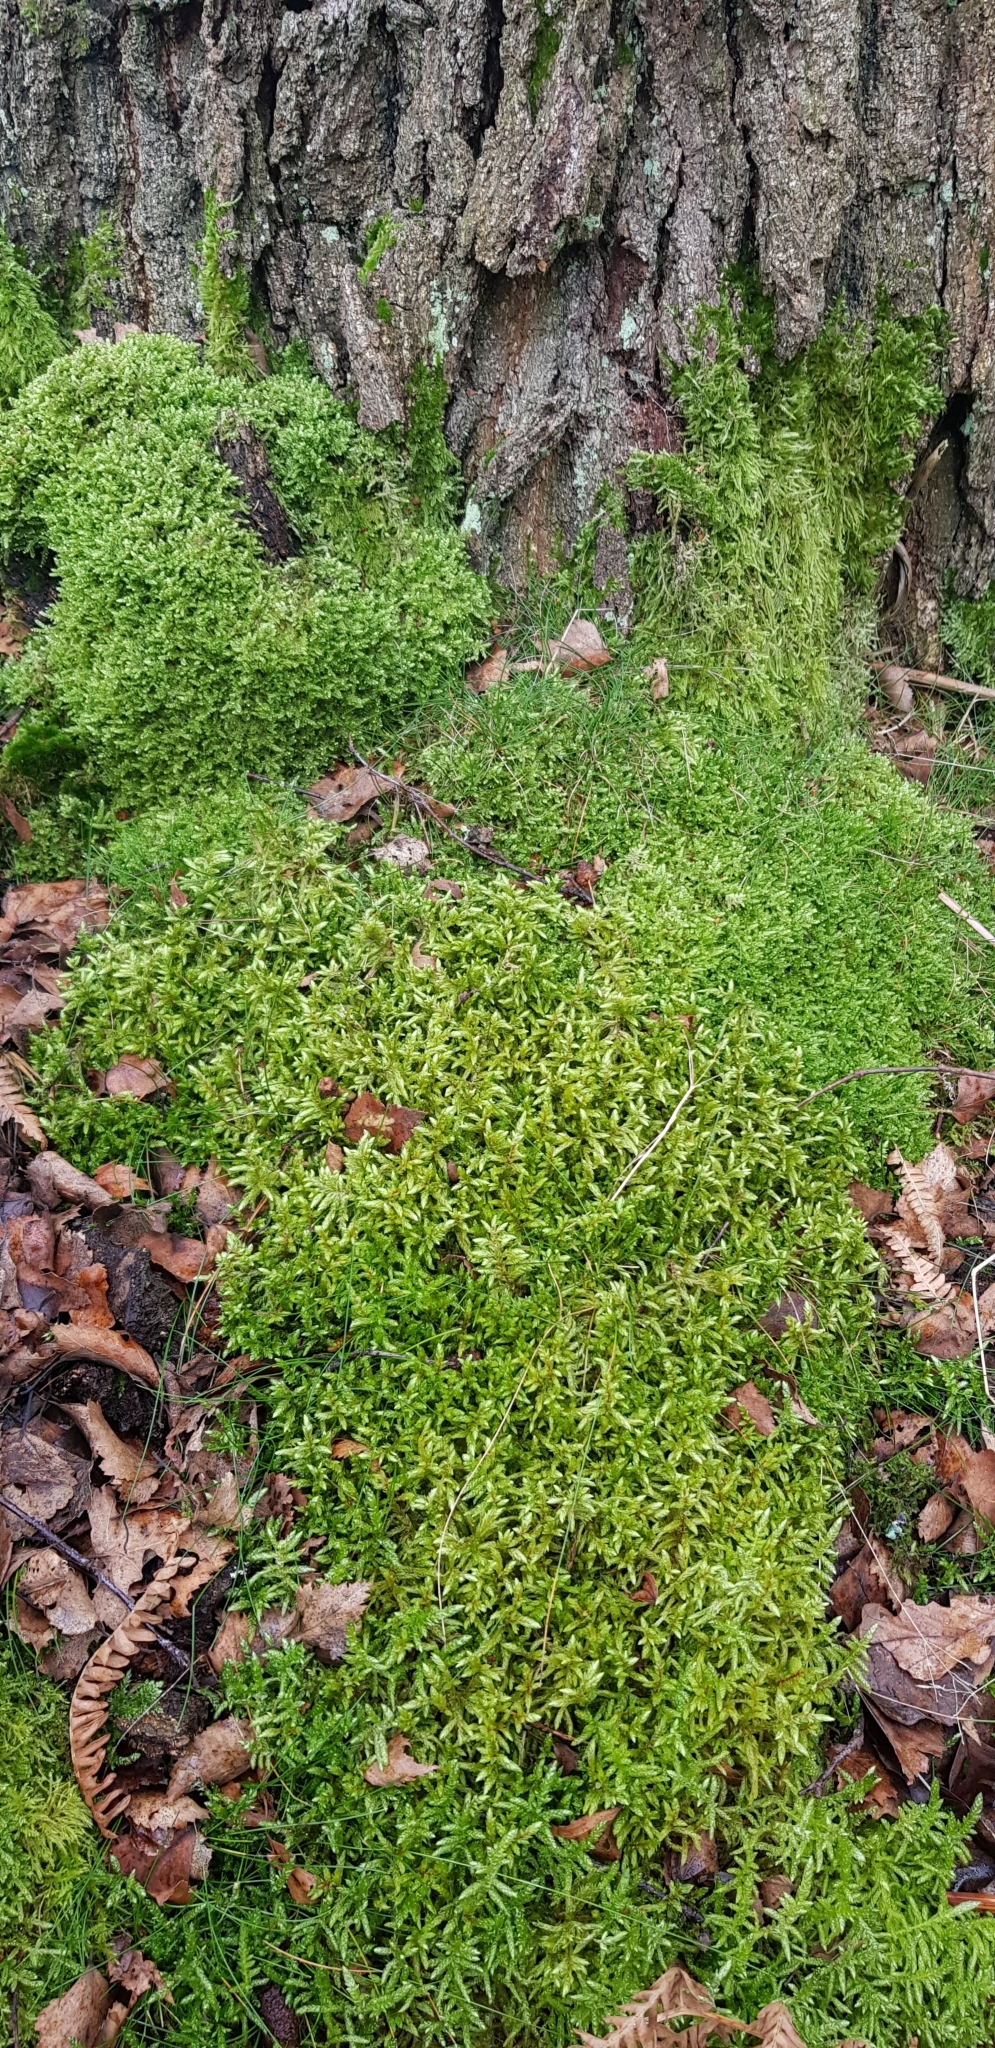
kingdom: Plantae
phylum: Bryophyta
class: Bryopsida
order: Hypnales
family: Hylocomiaceae
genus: Pleurozium
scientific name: Pleurozium schreberi
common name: Red-stemmed feather moss
